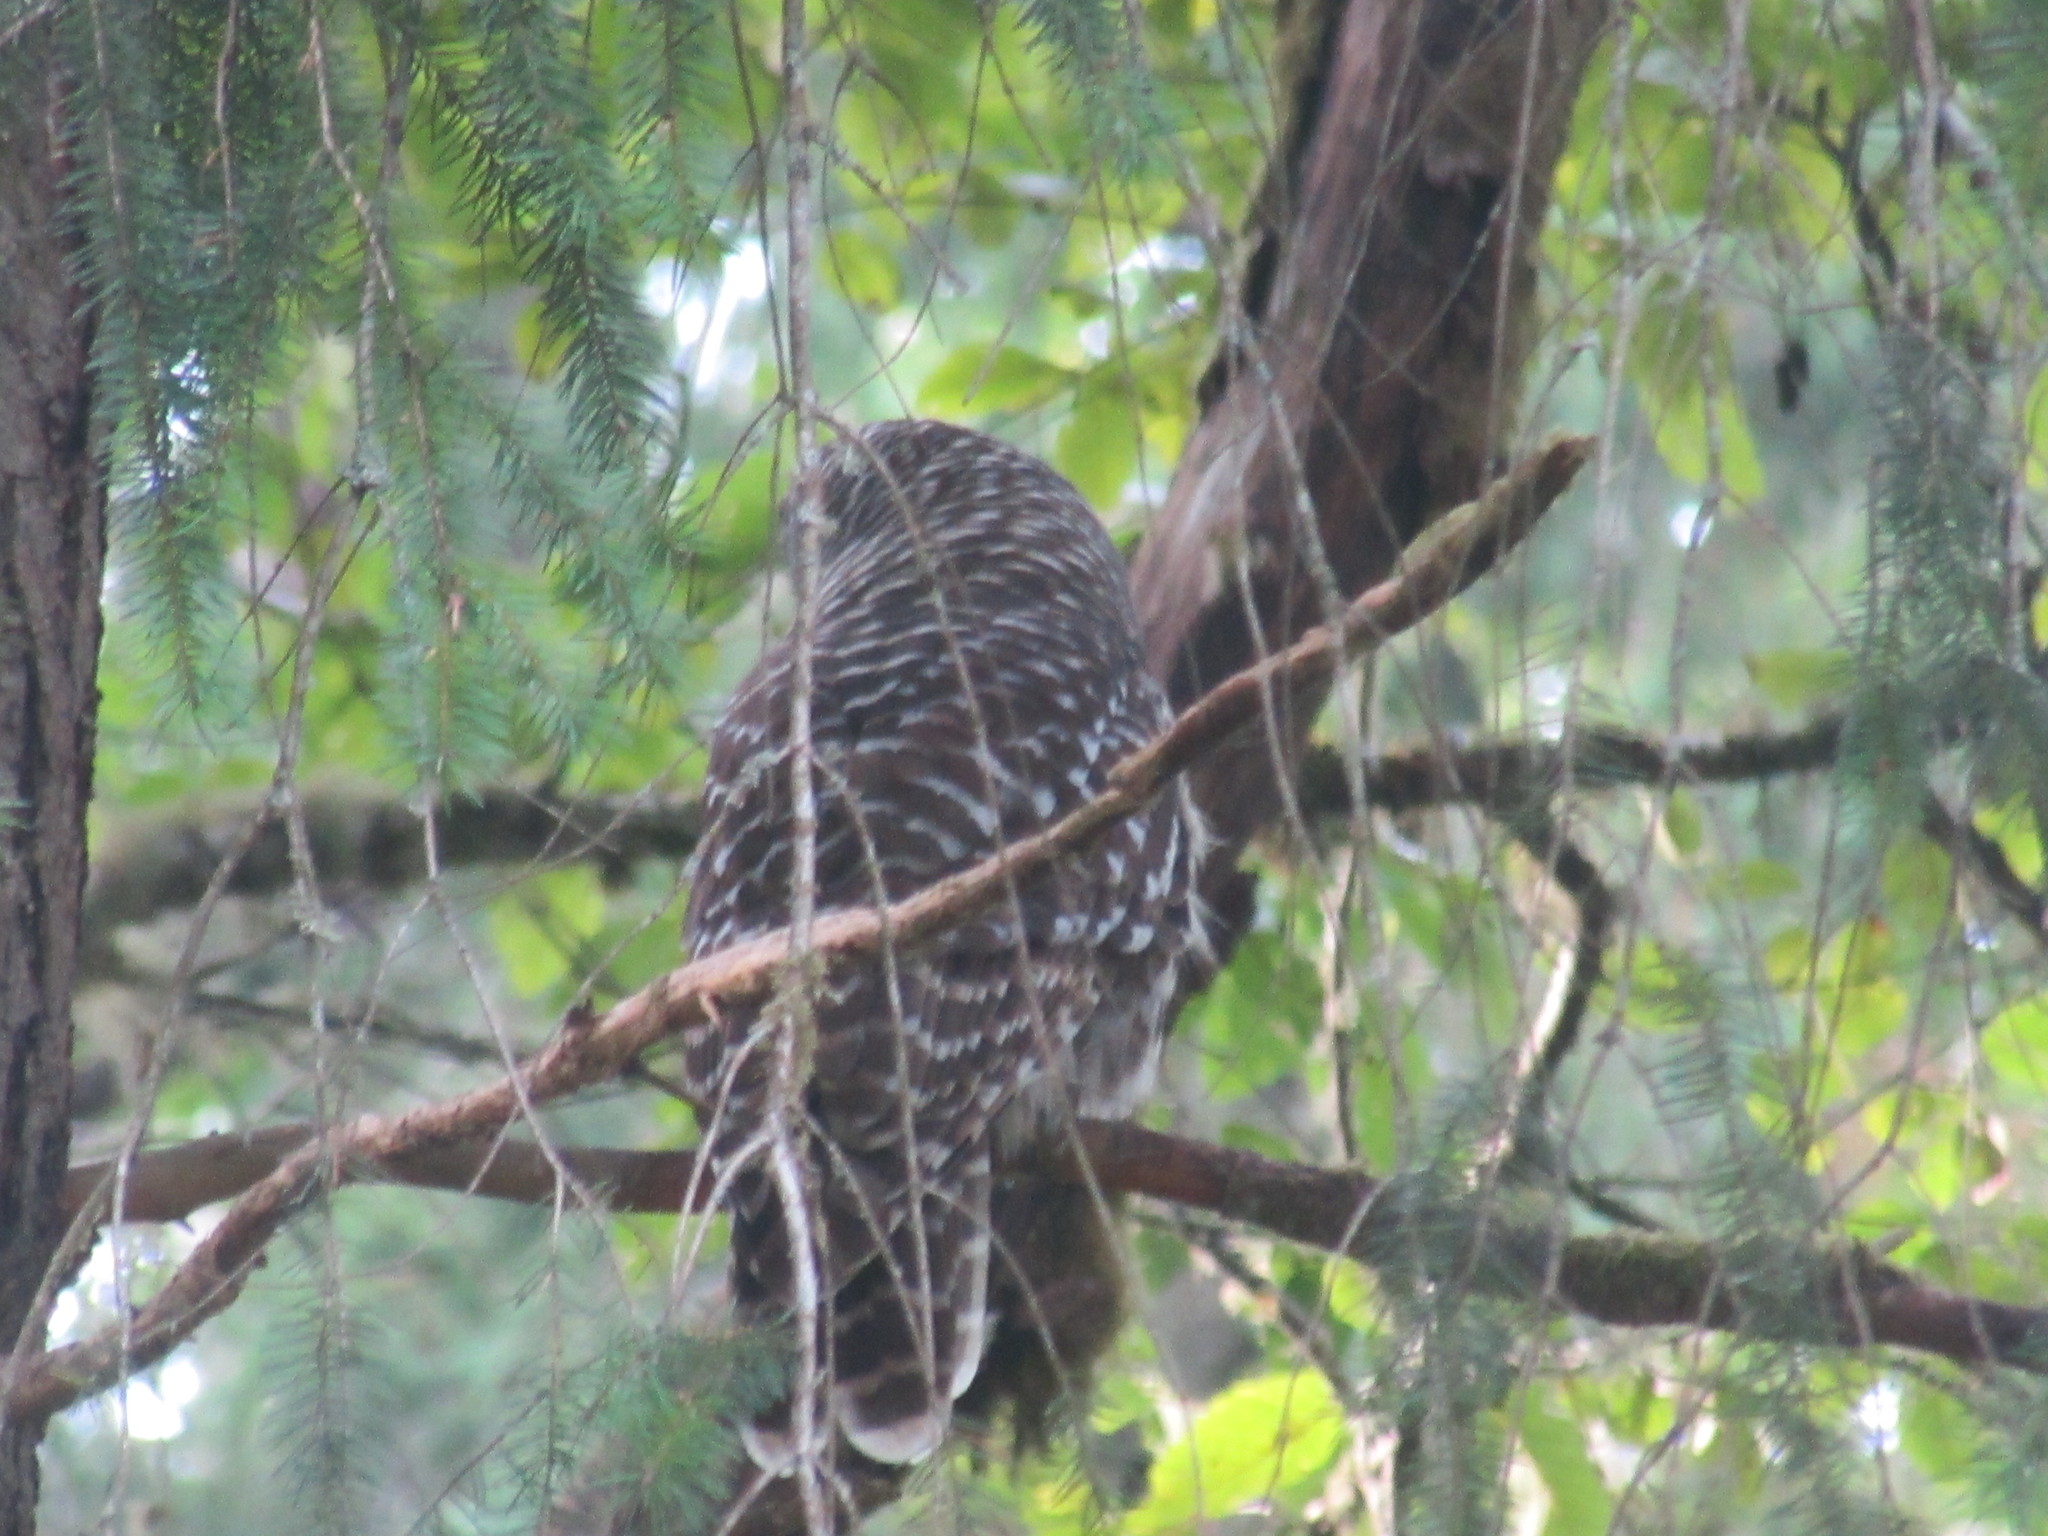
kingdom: Animalia
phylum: Chordata
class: Aves
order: Strigiformes
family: Strigidae
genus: Strix
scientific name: Strix varia
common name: Barred owl
